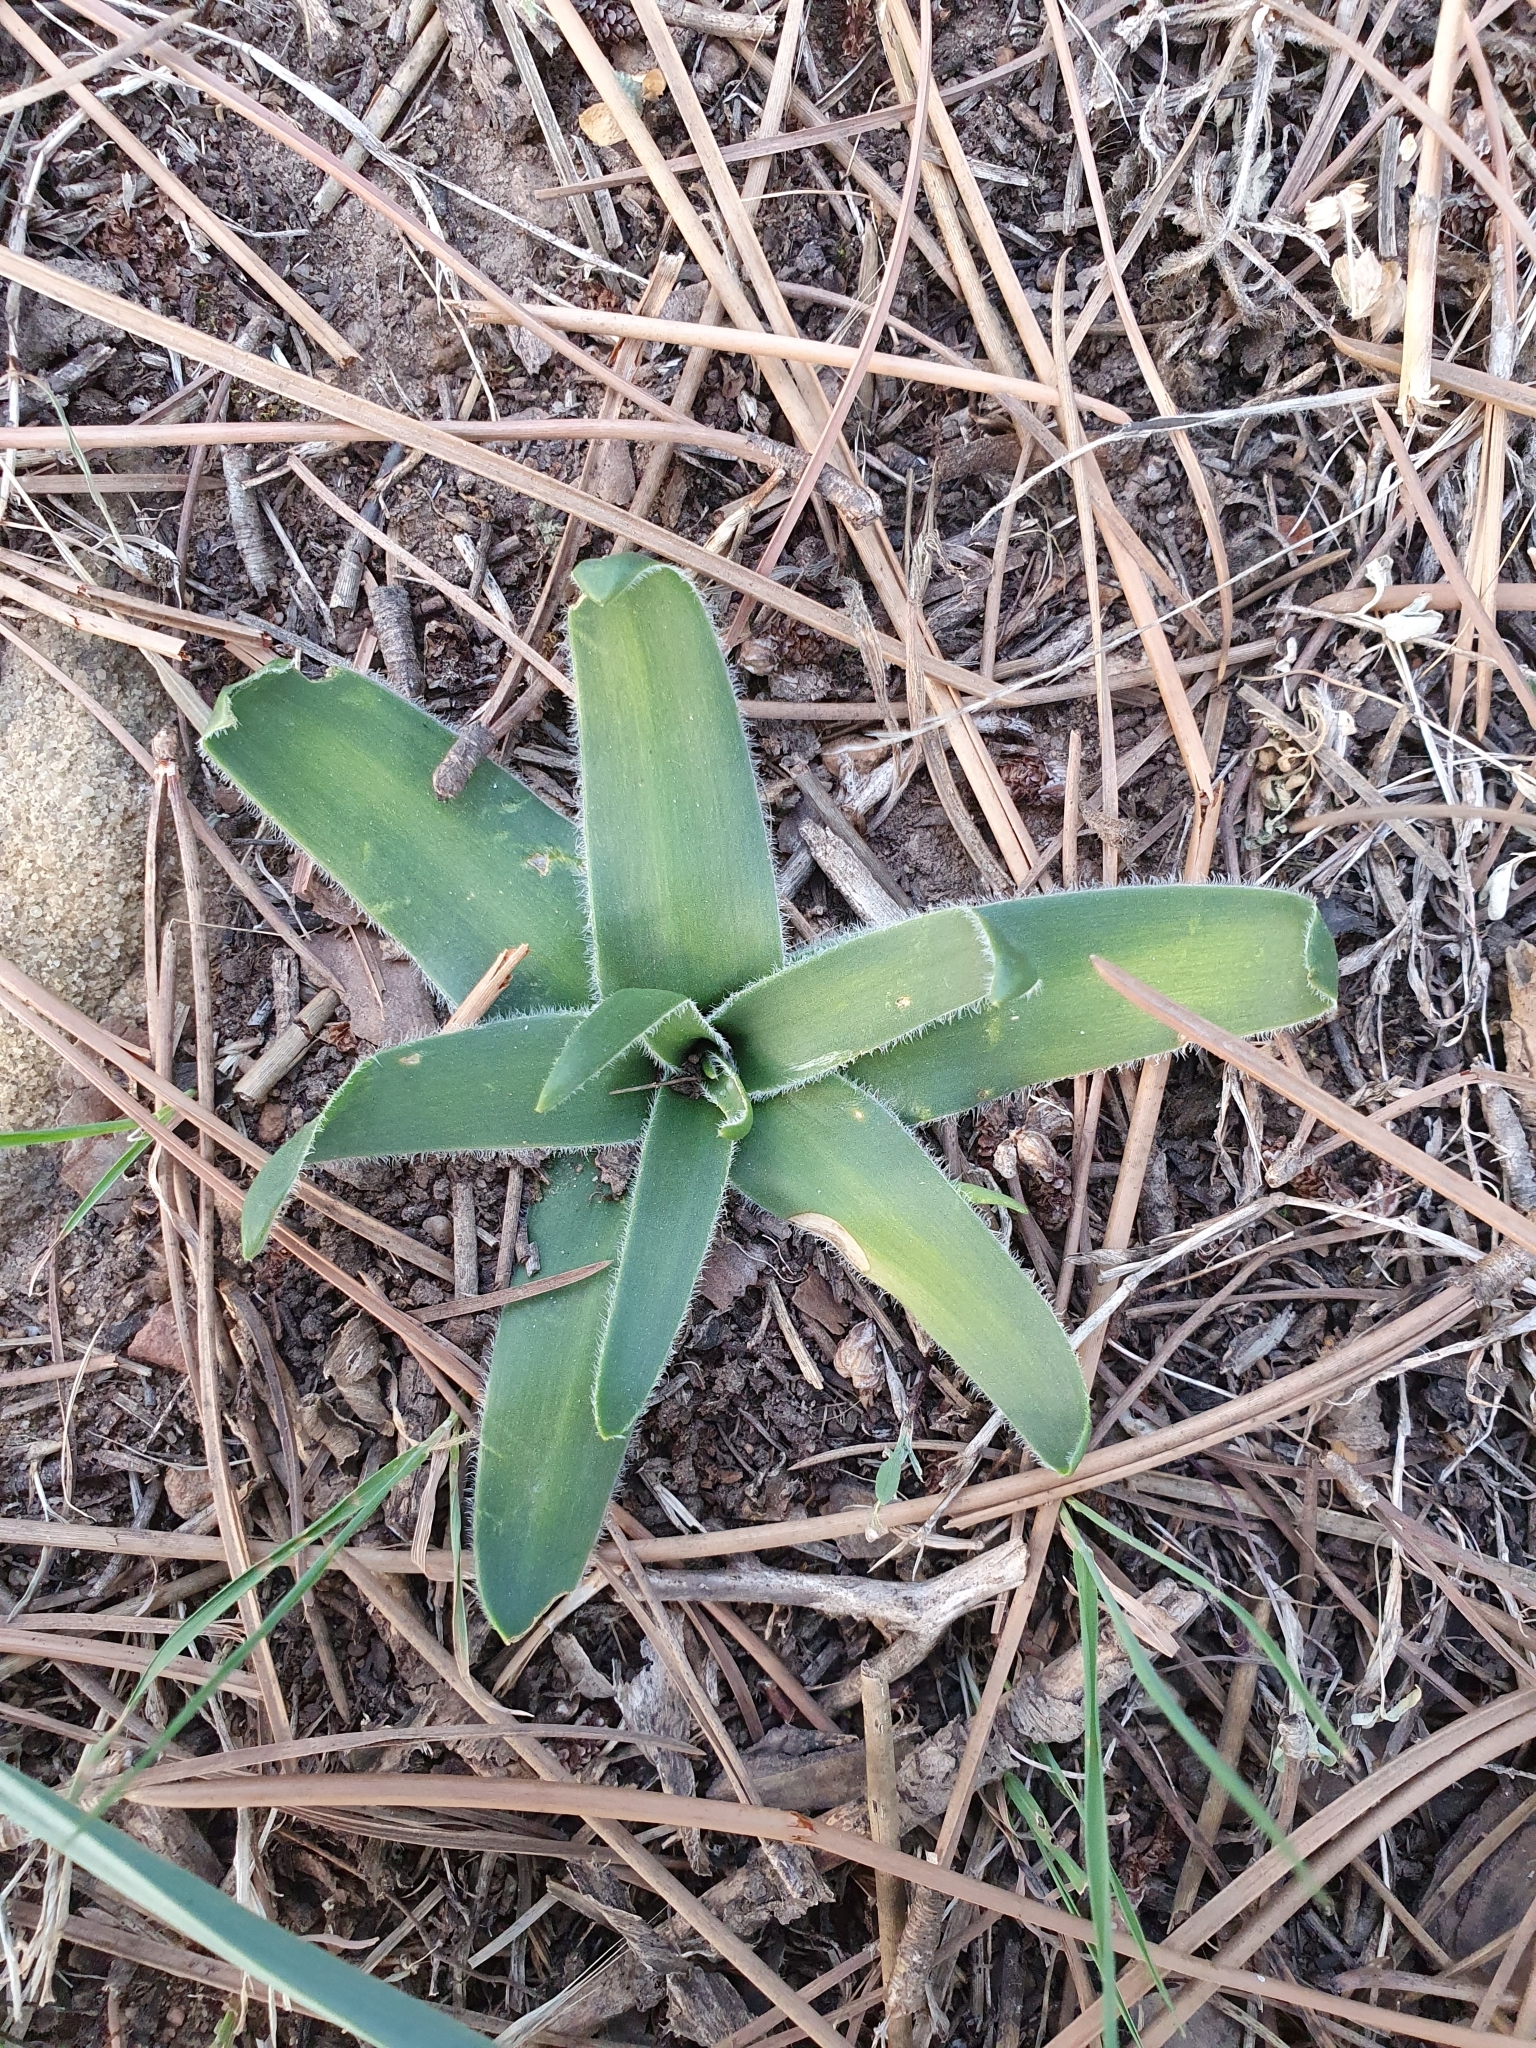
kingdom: Plantae
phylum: Tracheophyta
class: Liliopsida
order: Asparagales
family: Asparagaceae
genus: Scilla
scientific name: Scilla peruviana
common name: Portuguese squill
